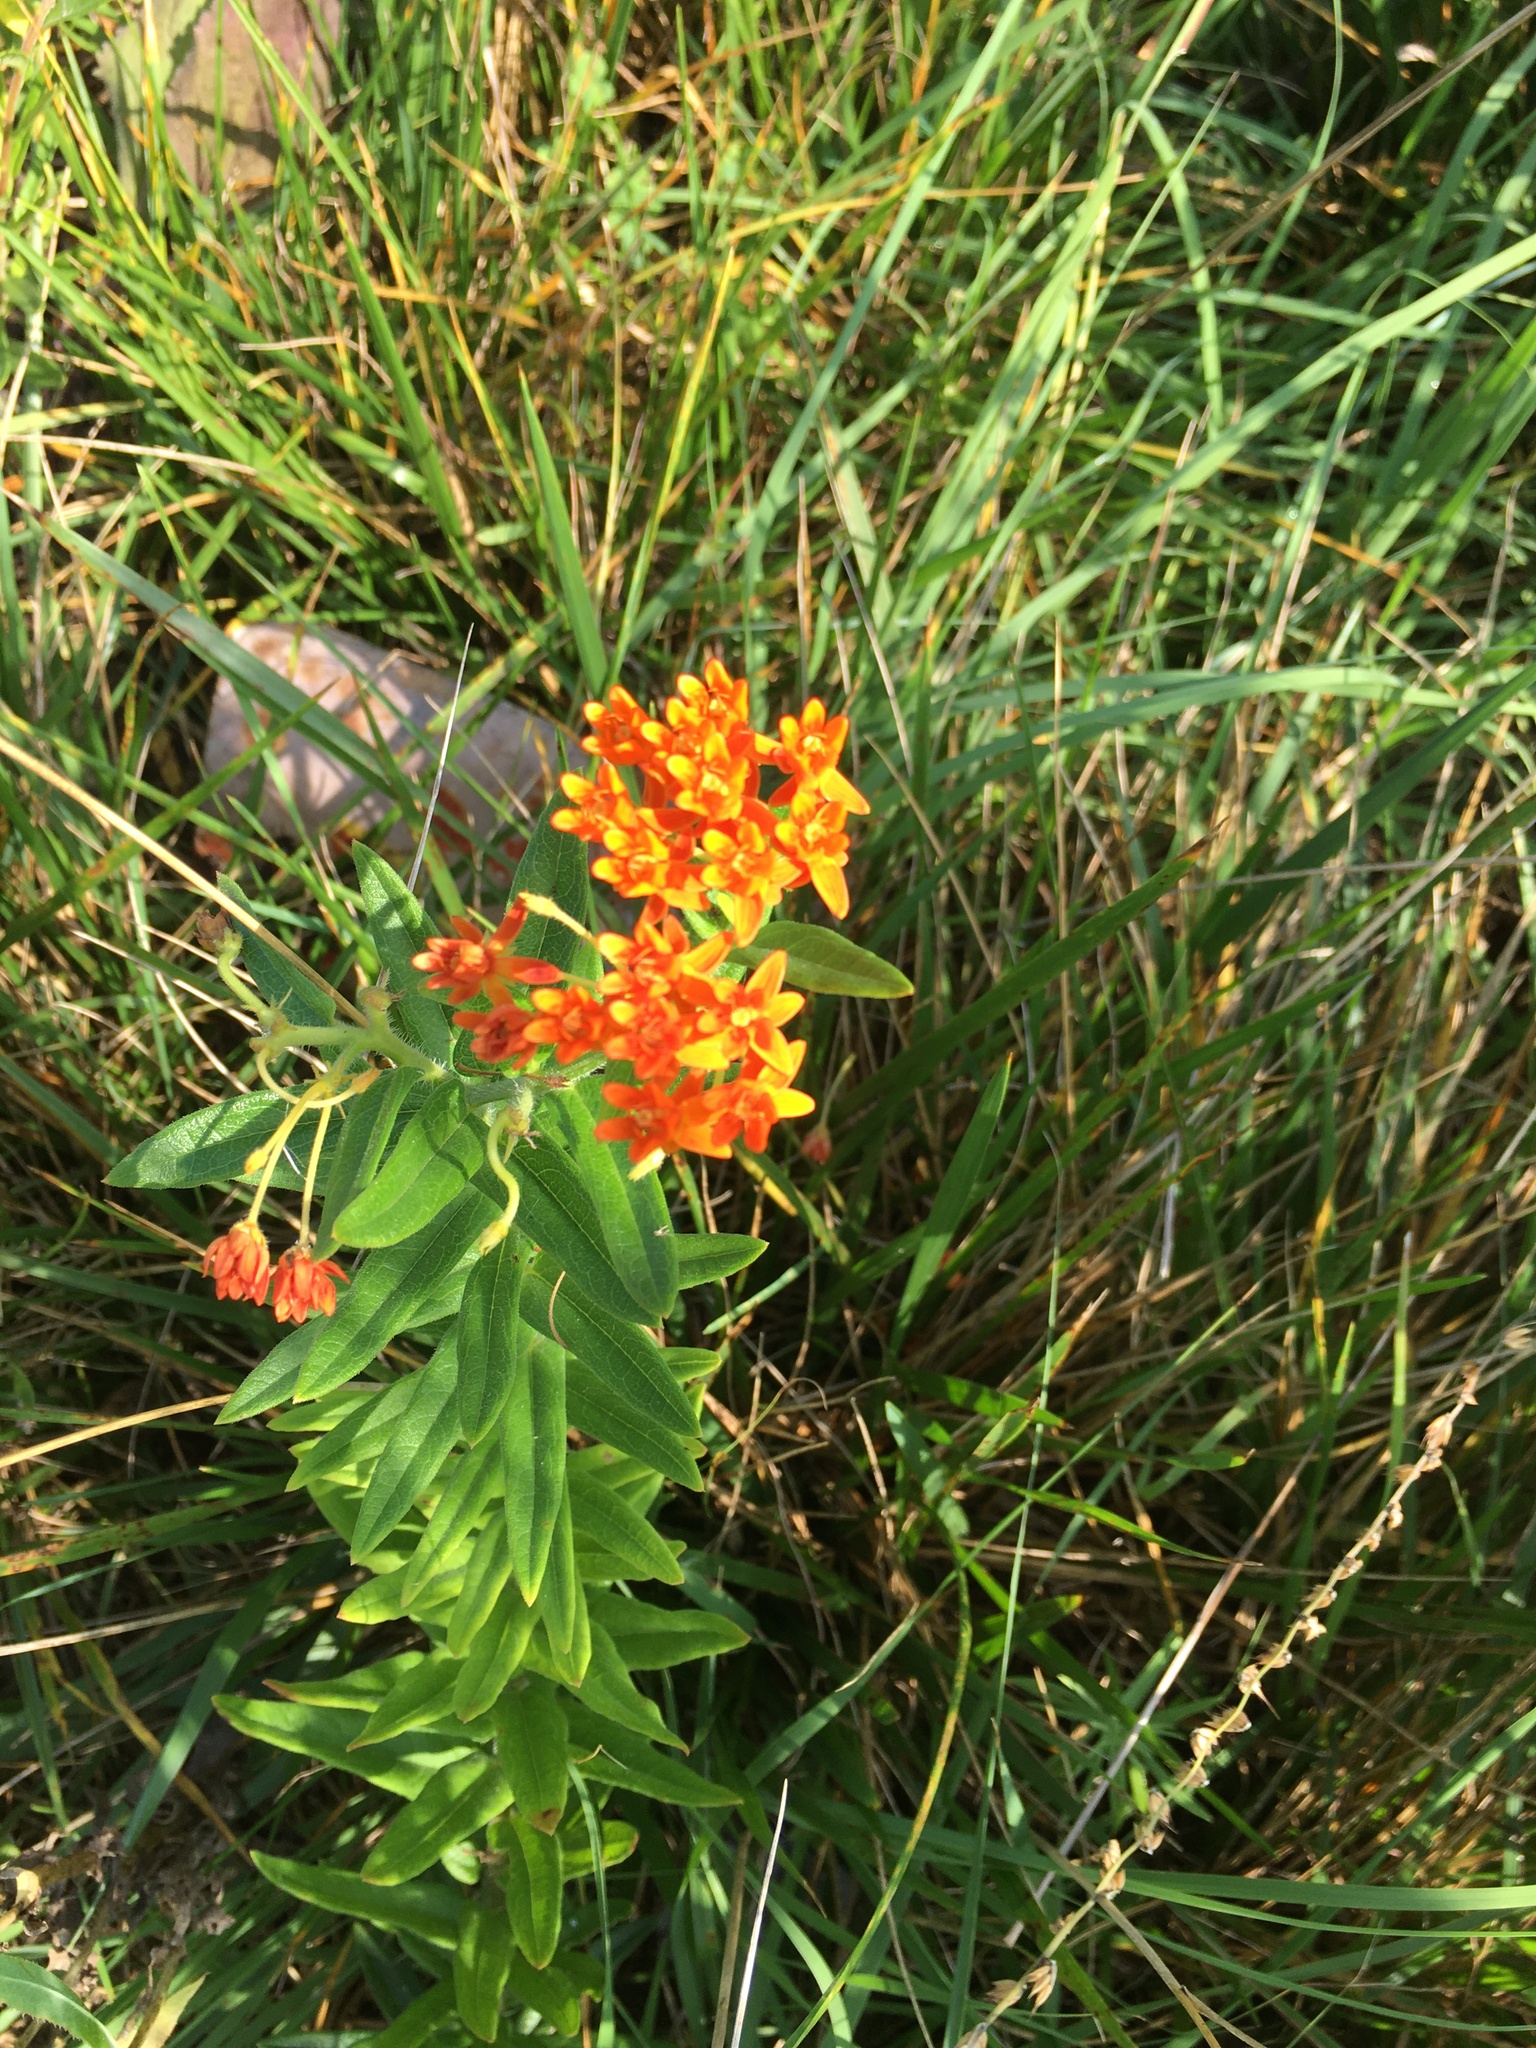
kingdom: Plantae
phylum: Tracheophyta
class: Magnoliopsida
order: Gentianales
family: Apocynaceae
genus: Asclepias
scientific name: Asclepias tuberosa
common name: Butterfly milkweed
